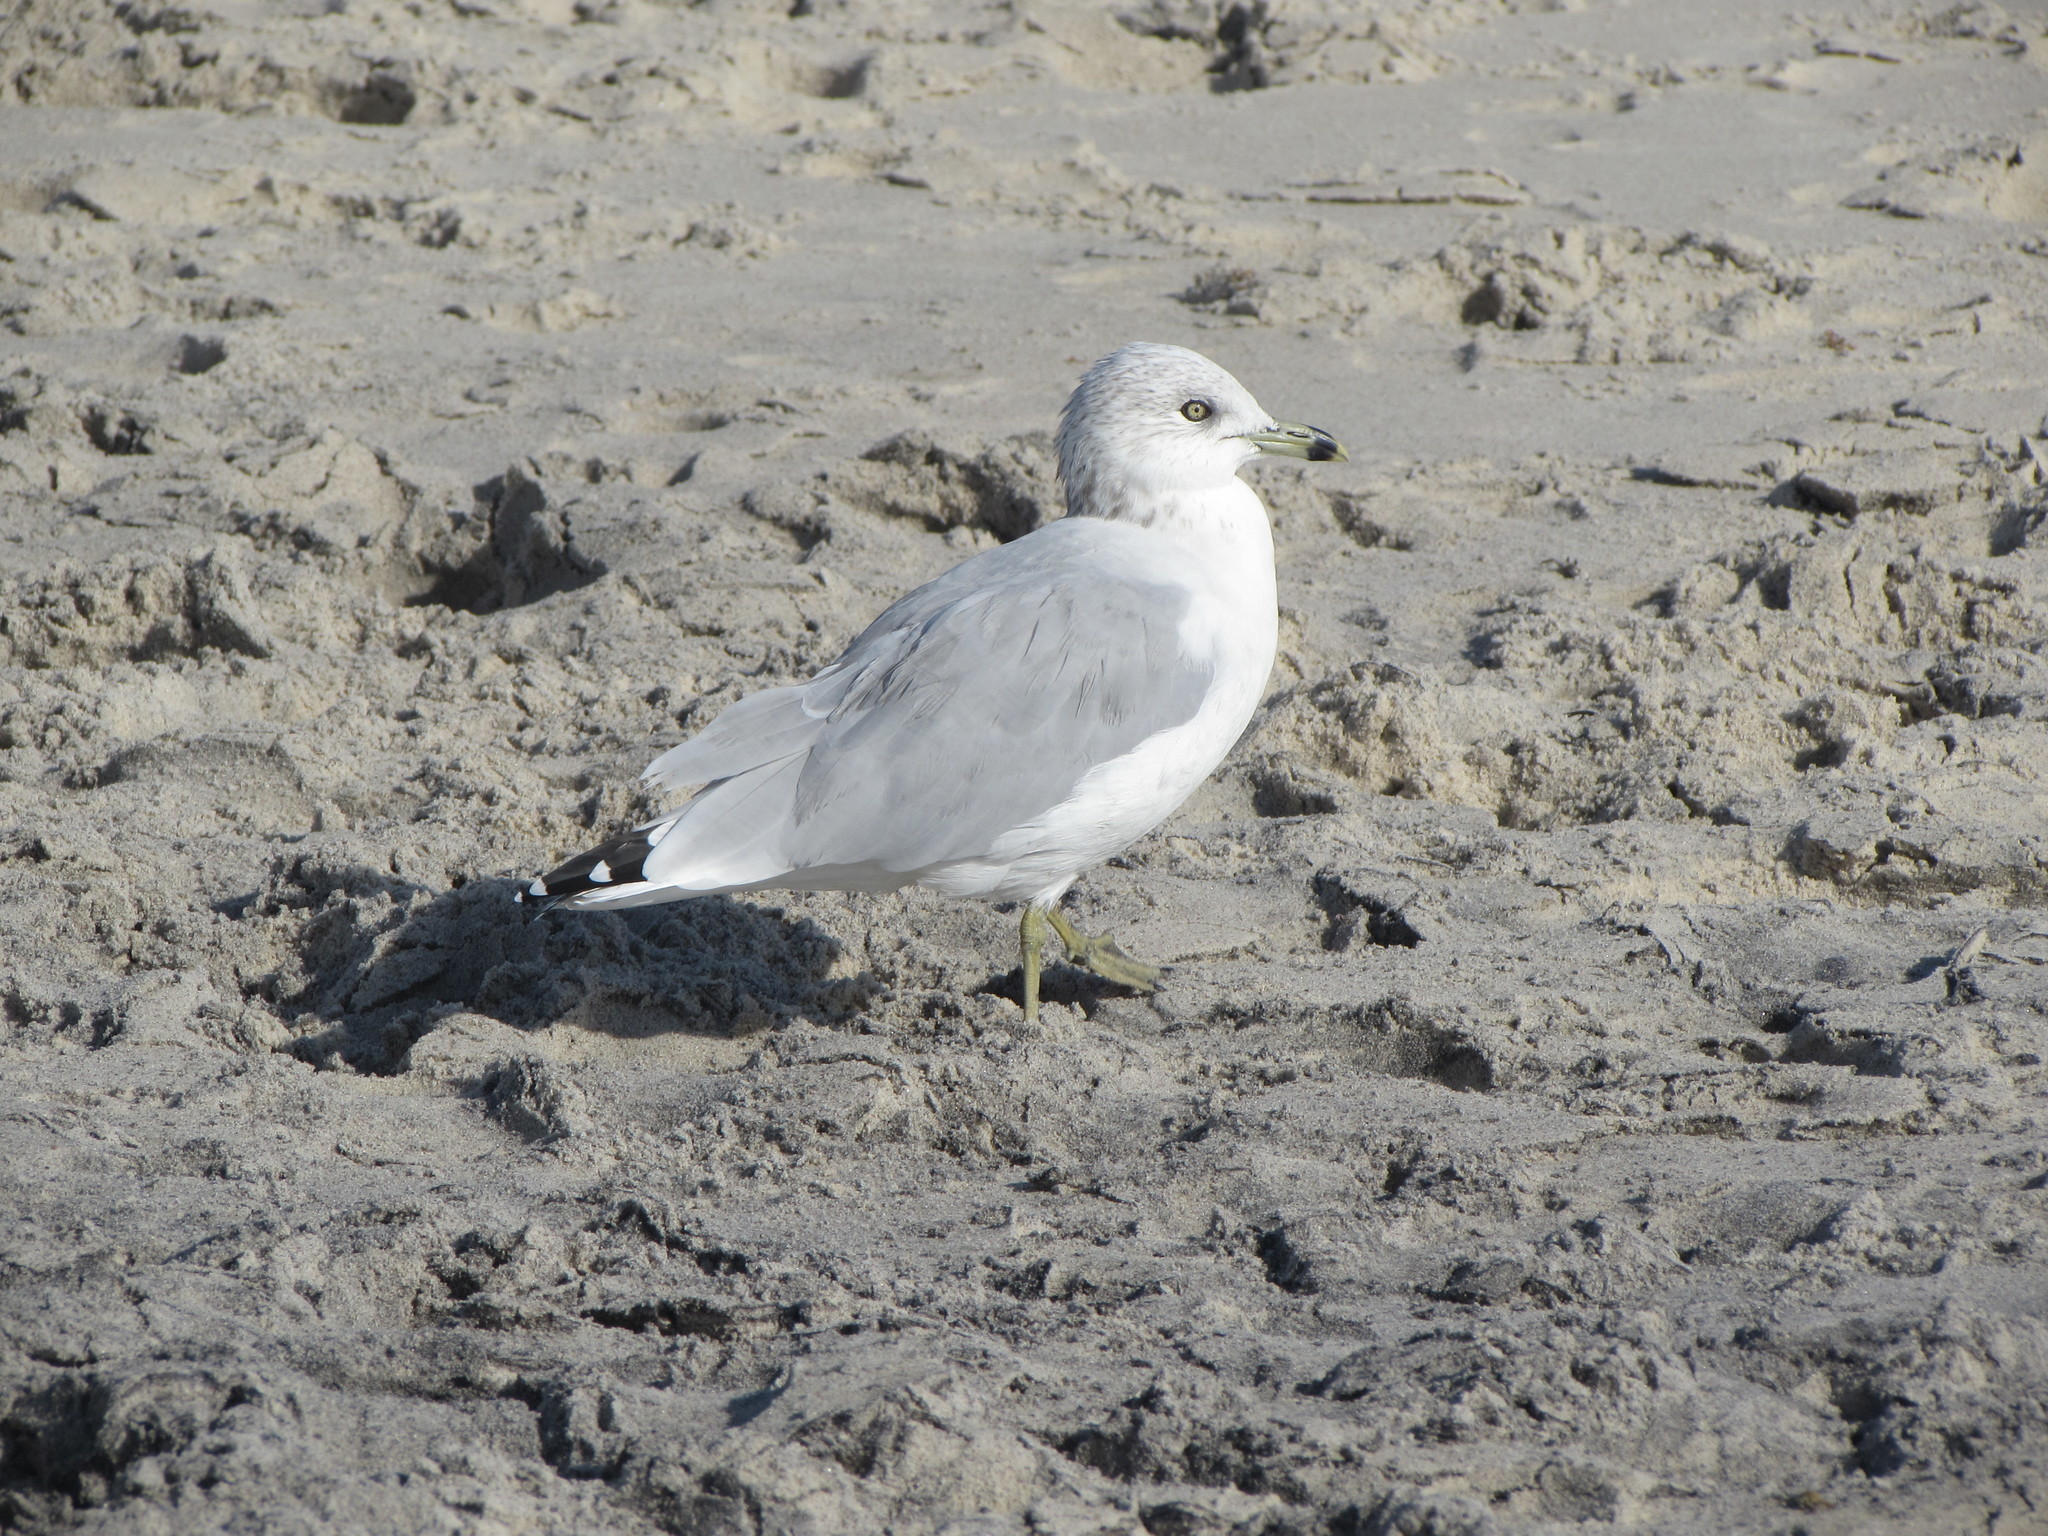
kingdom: Animalia
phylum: Chordata
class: Aves
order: Charadriiformes
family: Laridae
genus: Larus
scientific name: Larus delawarensis
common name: Ring-billed gull
